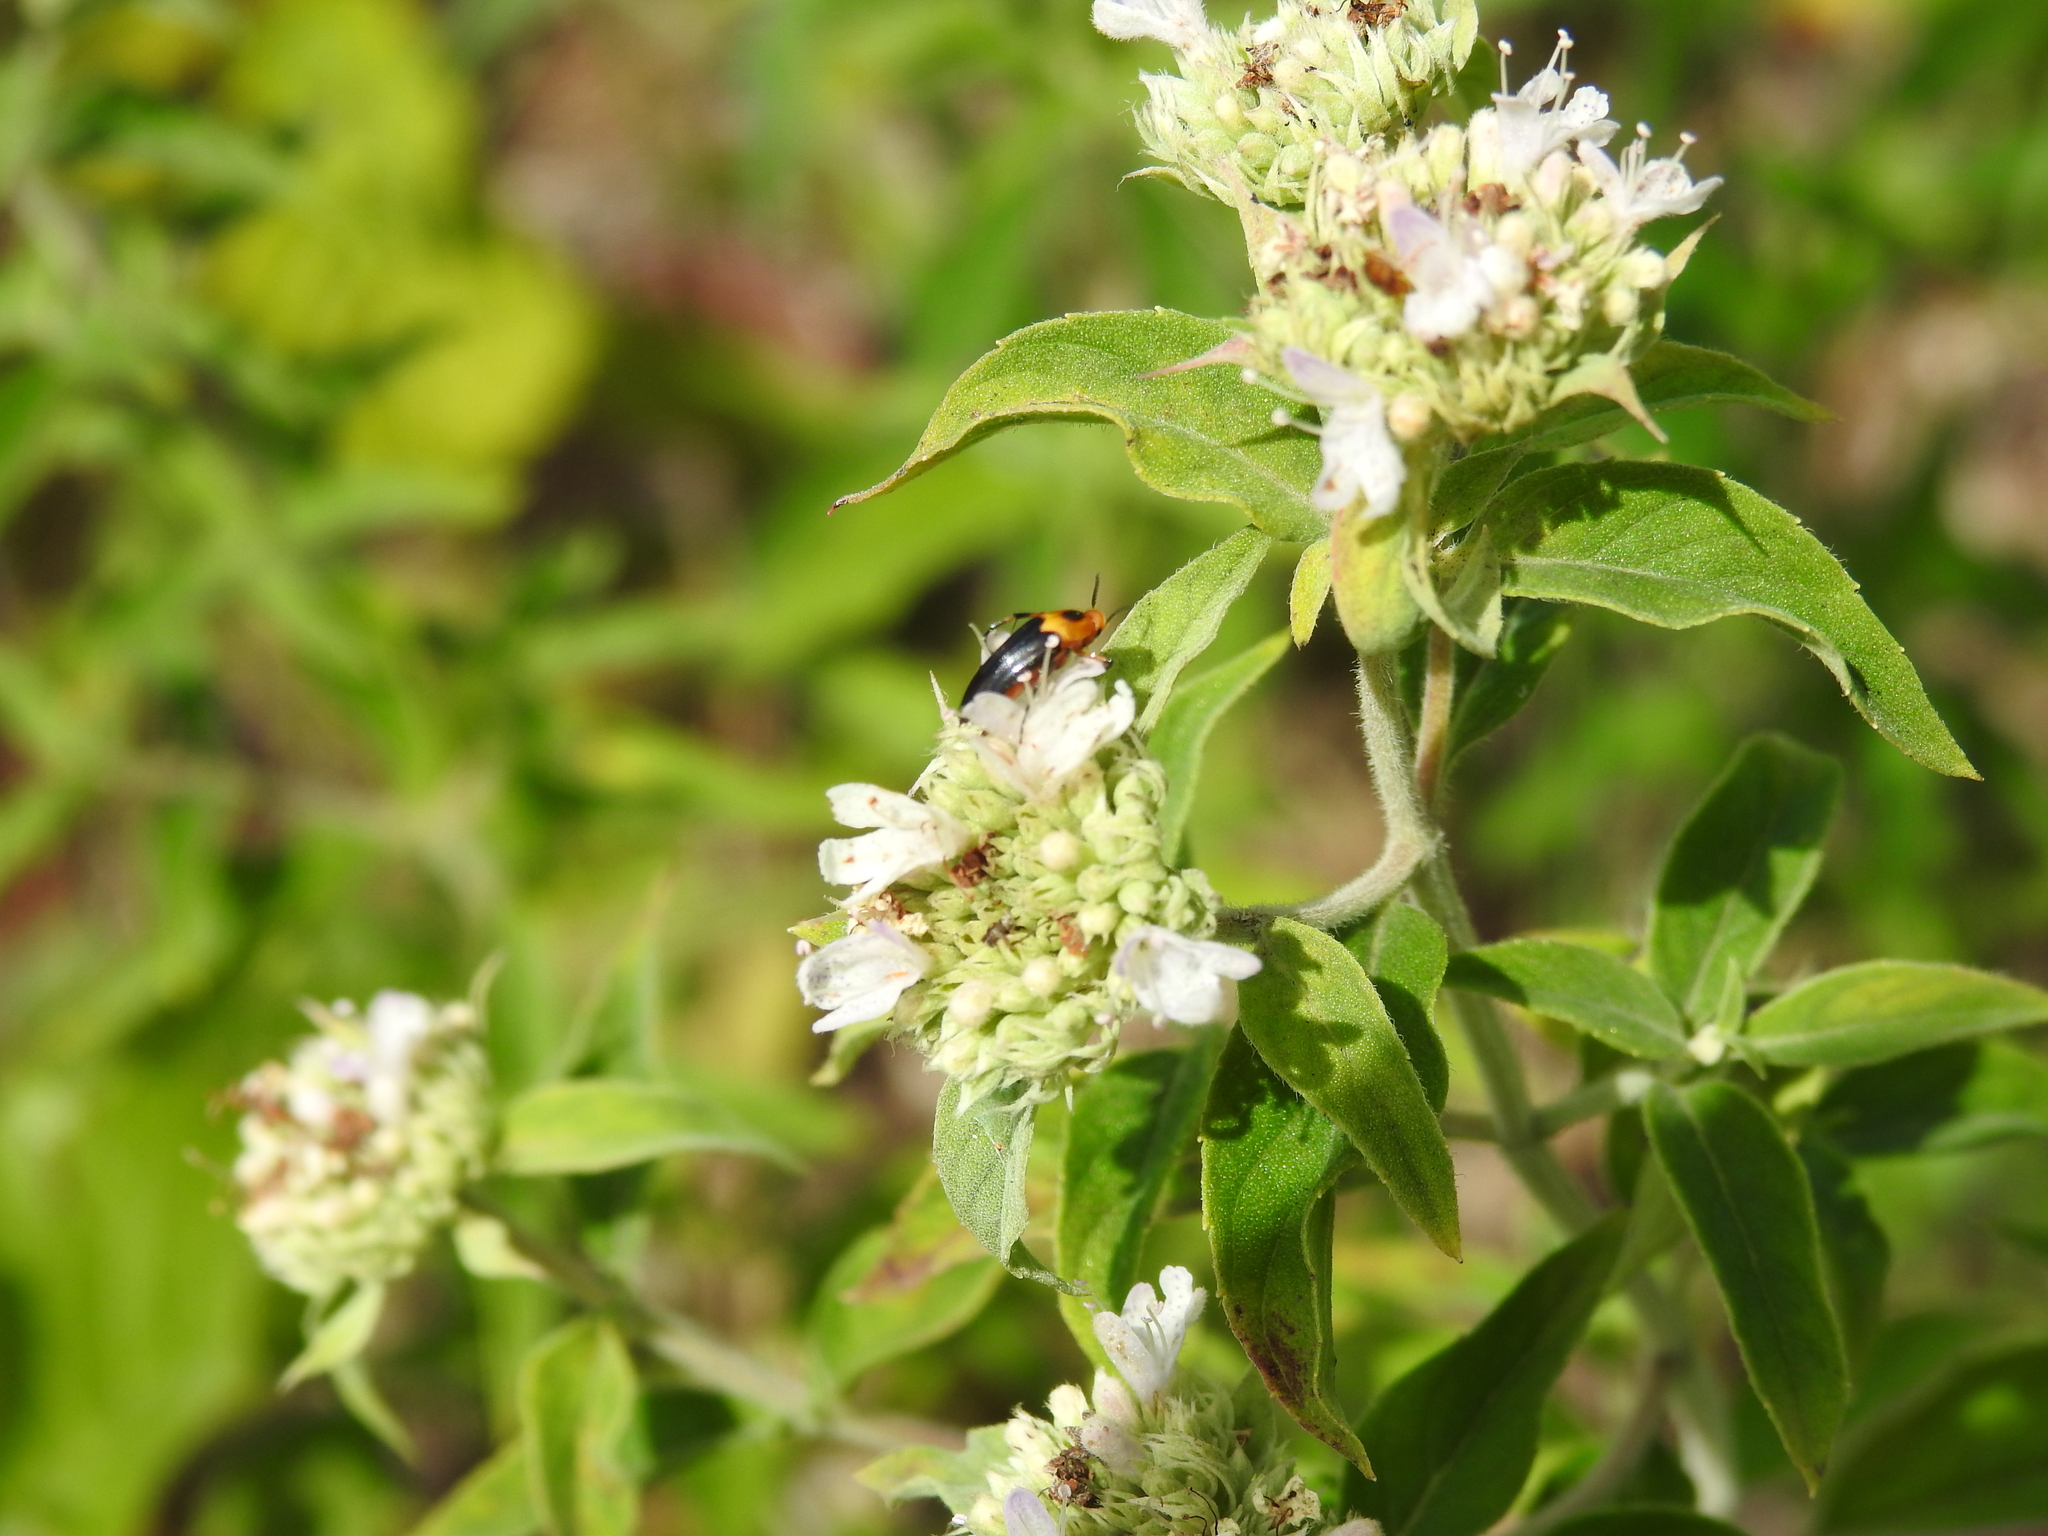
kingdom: Animalia
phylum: Arthropoda
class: Insecta
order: Coleoptera
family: Ripiphoridae
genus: Macrosiagon
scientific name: Macrosiagon limbatum
